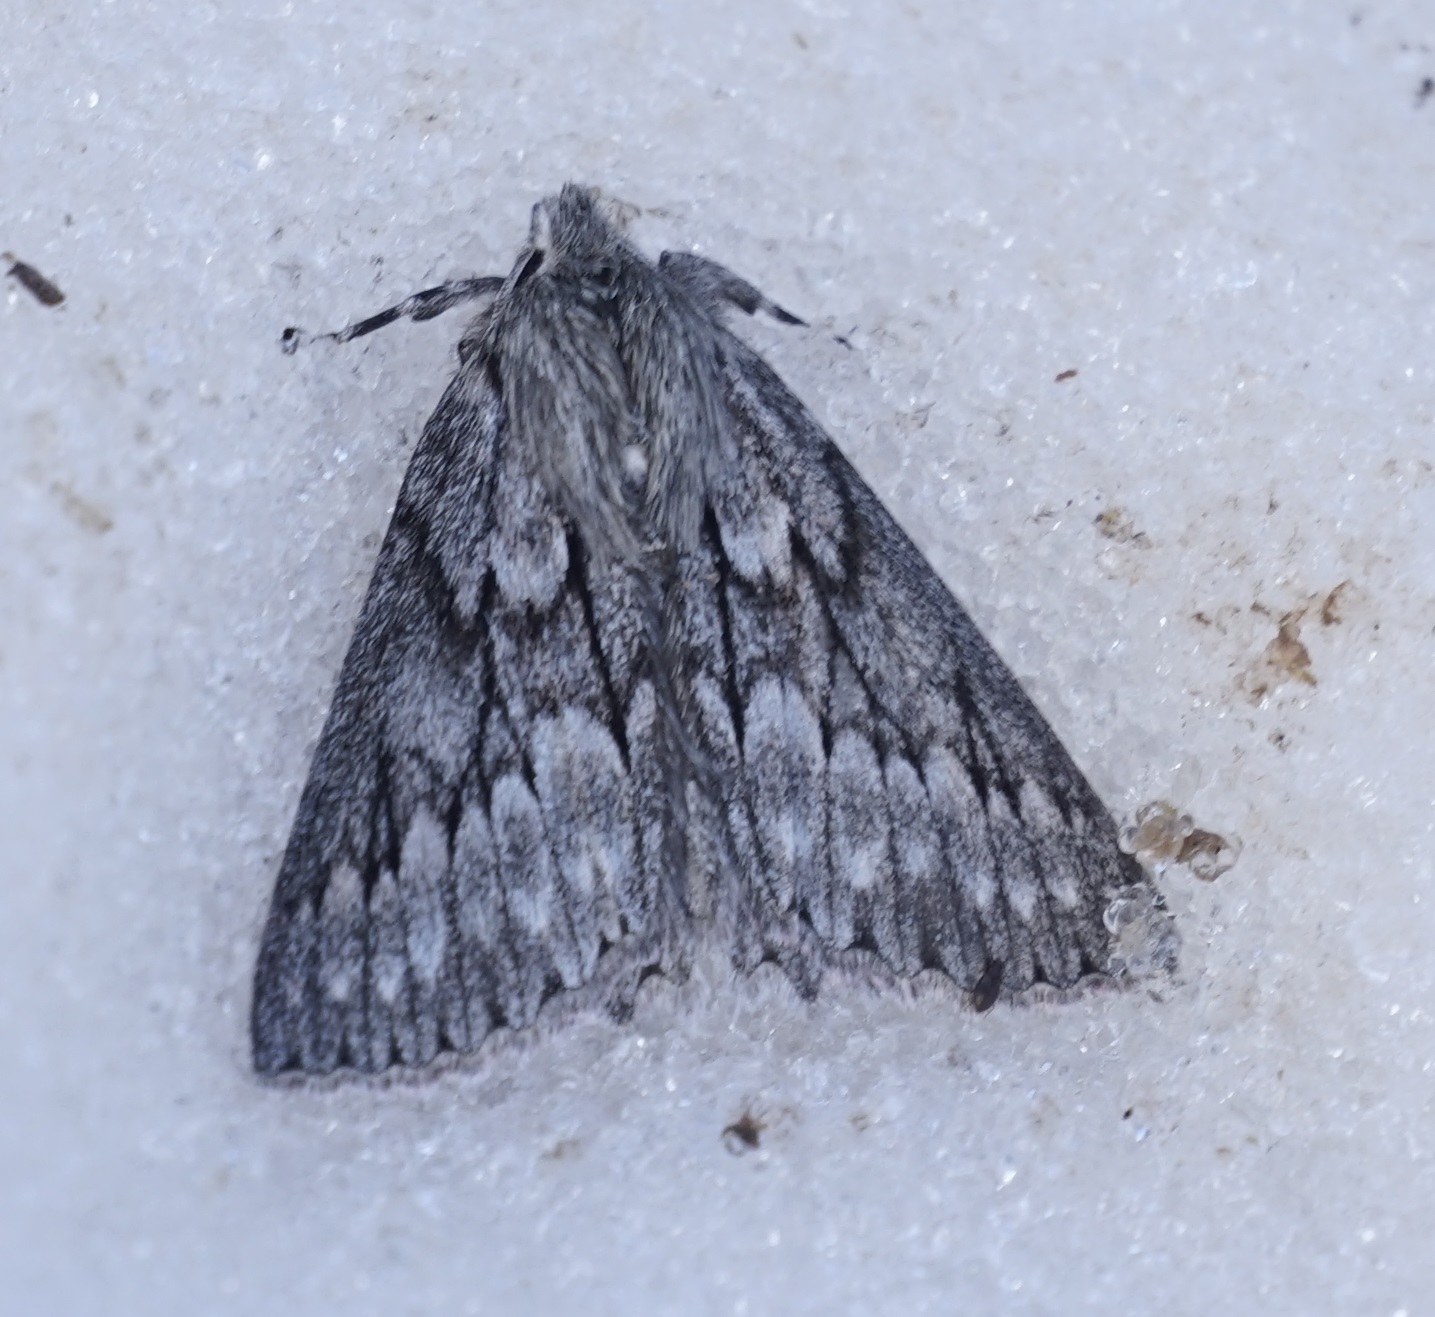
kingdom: Animalia
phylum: Arthropoda
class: Insecta
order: Lepidoptera
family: Geometridae
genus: Cyneoterpna
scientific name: Cyneoterpna alpina
